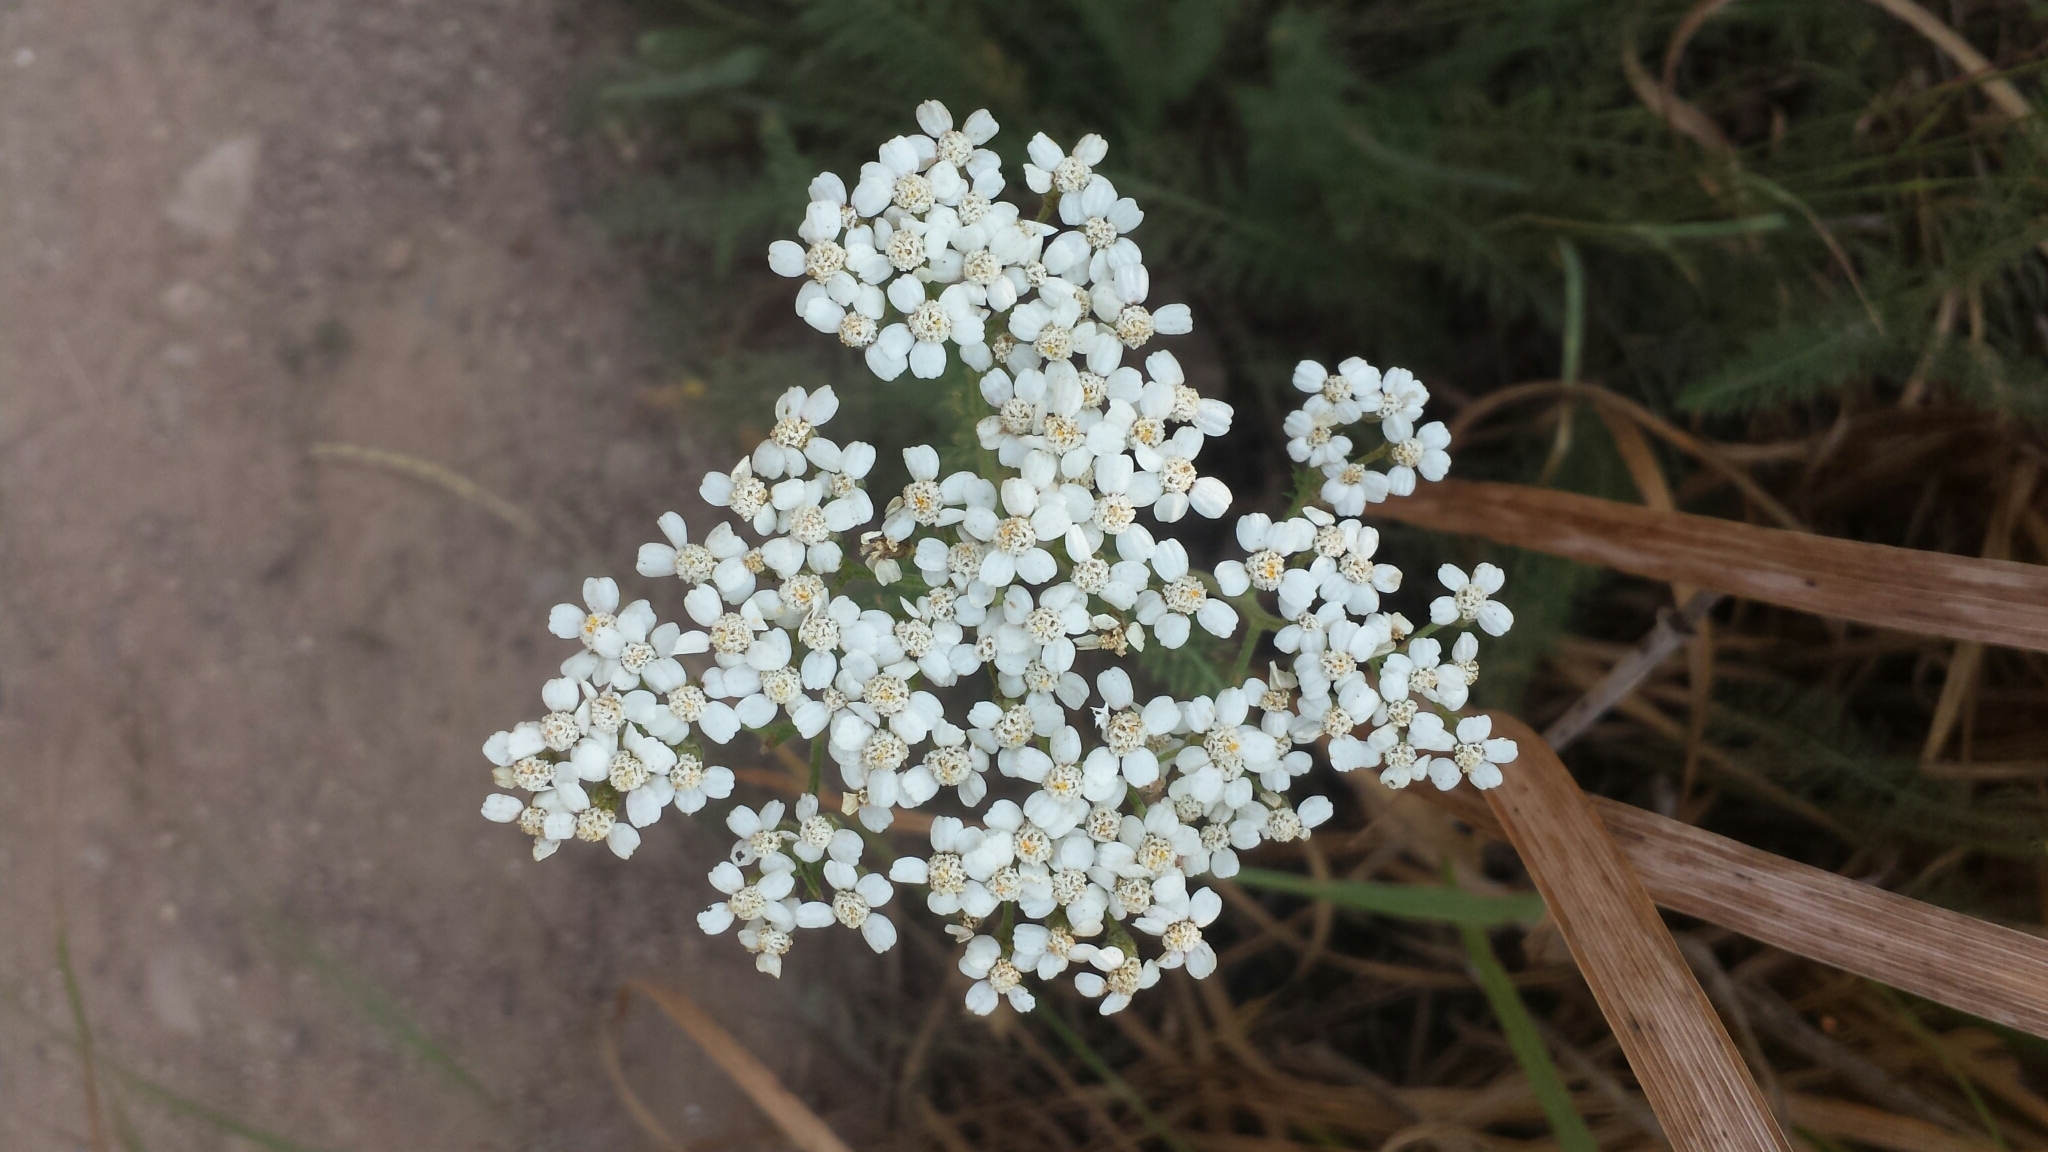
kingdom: Plantae
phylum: Tracheophyta
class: Magnoliopsida
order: Asterales
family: Asteraceae
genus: Achillea
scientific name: Achillea millefolium
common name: Yarrow
